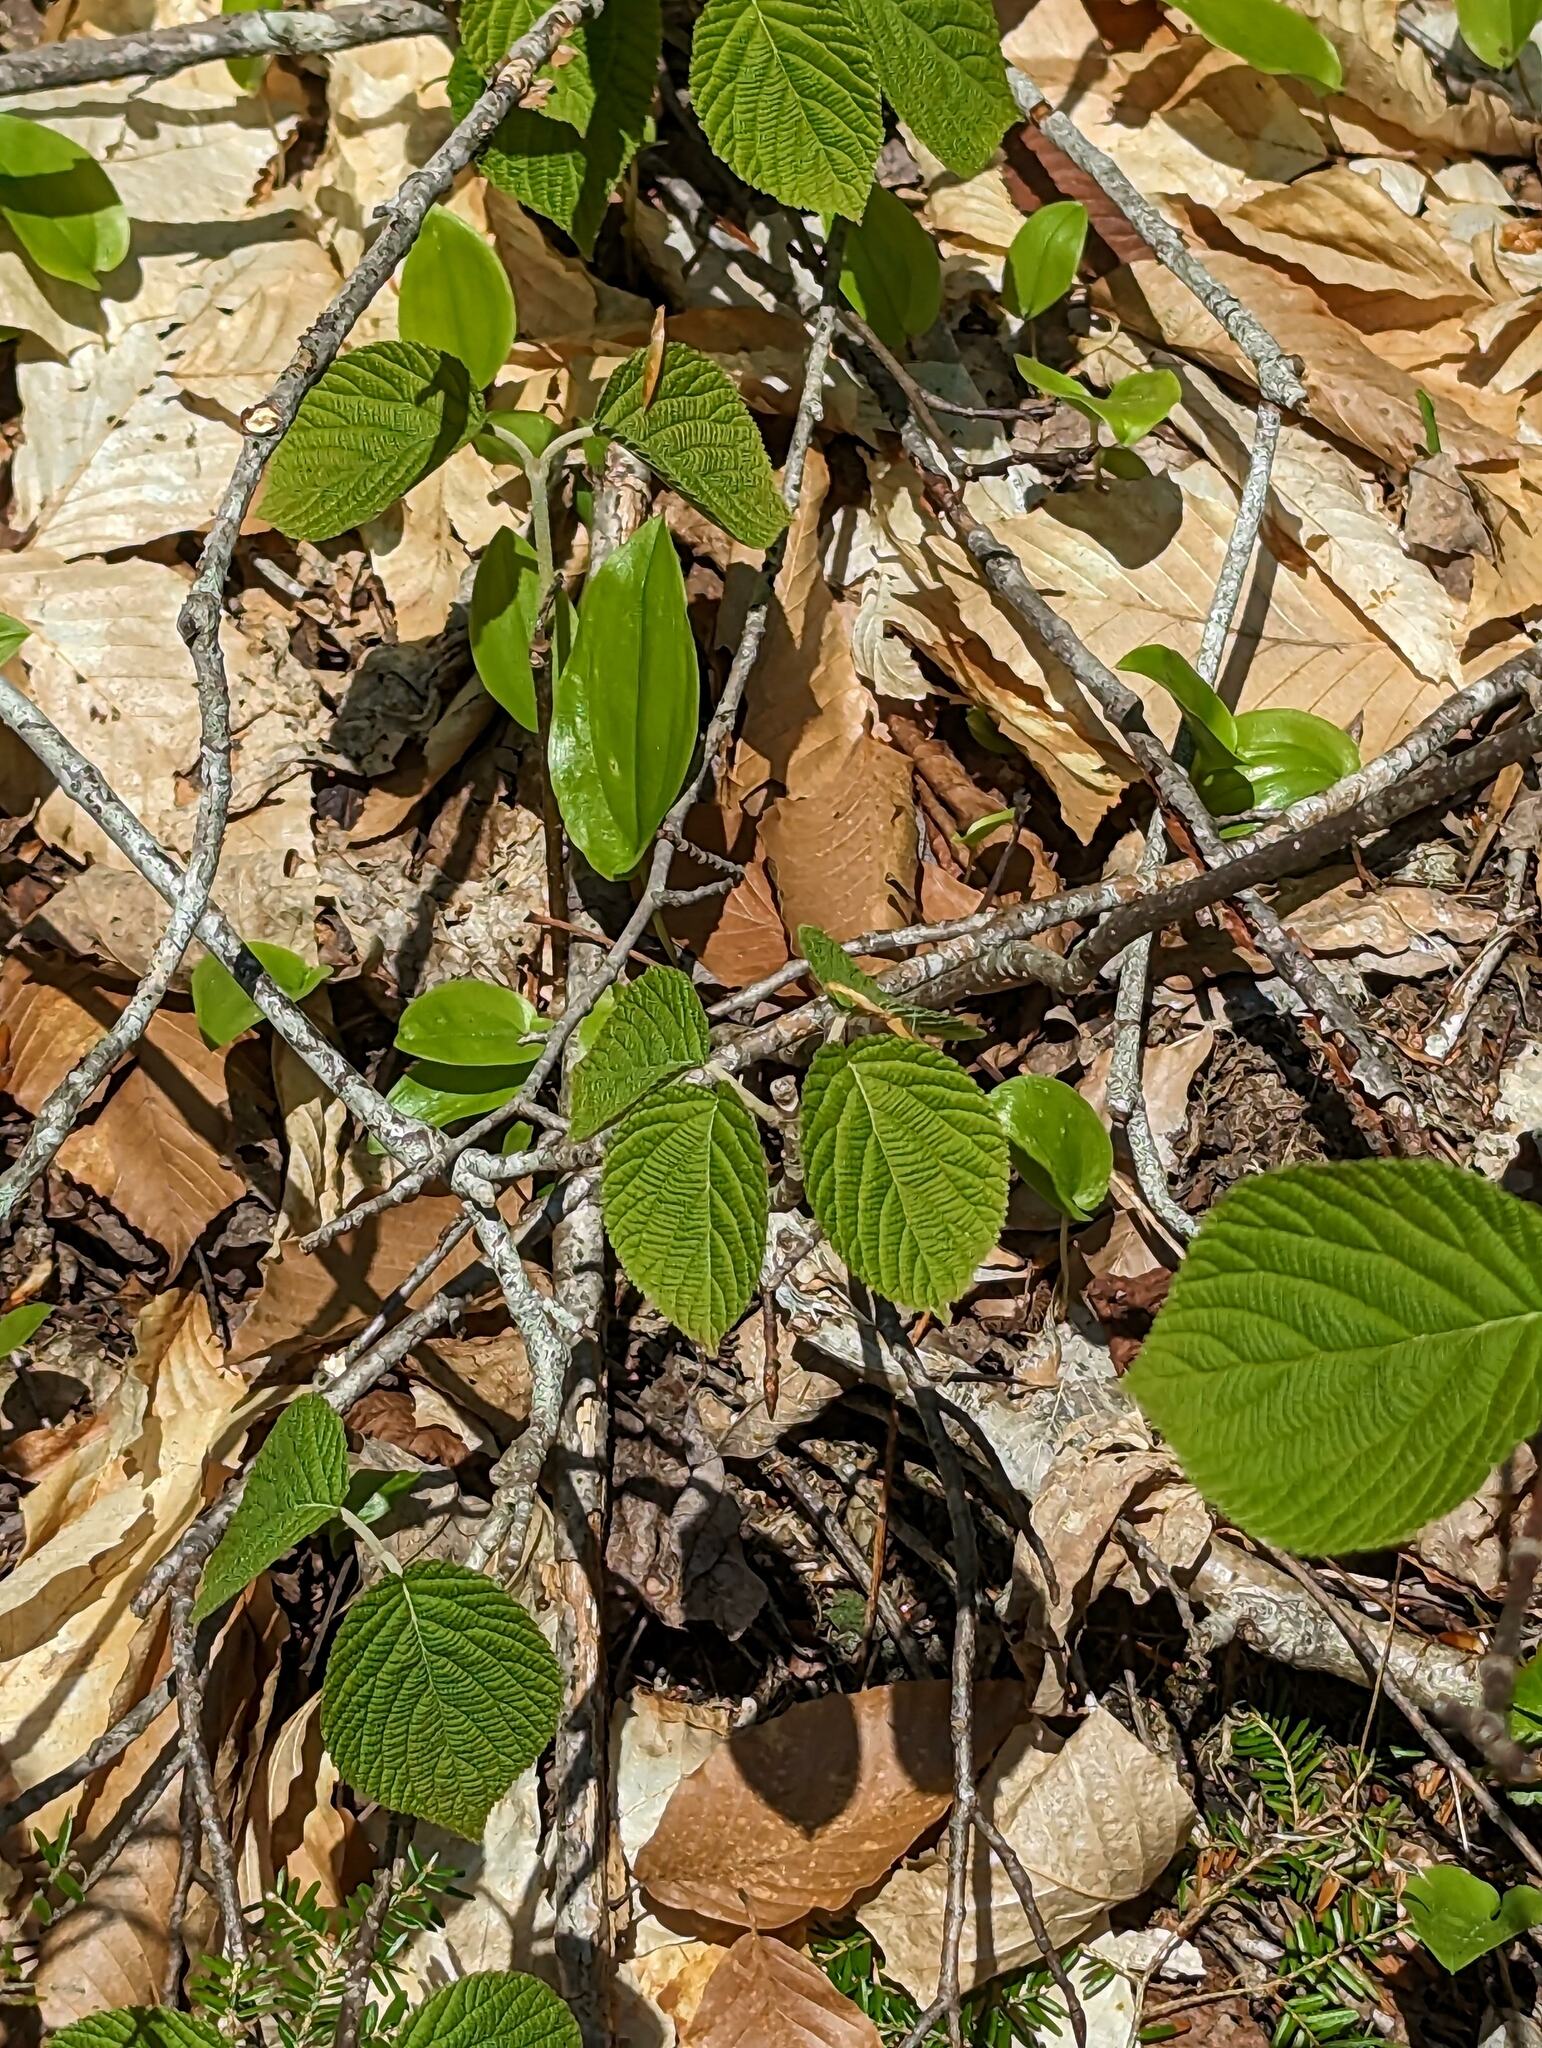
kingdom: Plantae
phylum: Tracheophyta
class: Magnoliopsida
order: Dipsacales
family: Viburnaceae
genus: Viburnum
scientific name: Viburnum lantanoides
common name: Hobblebush
